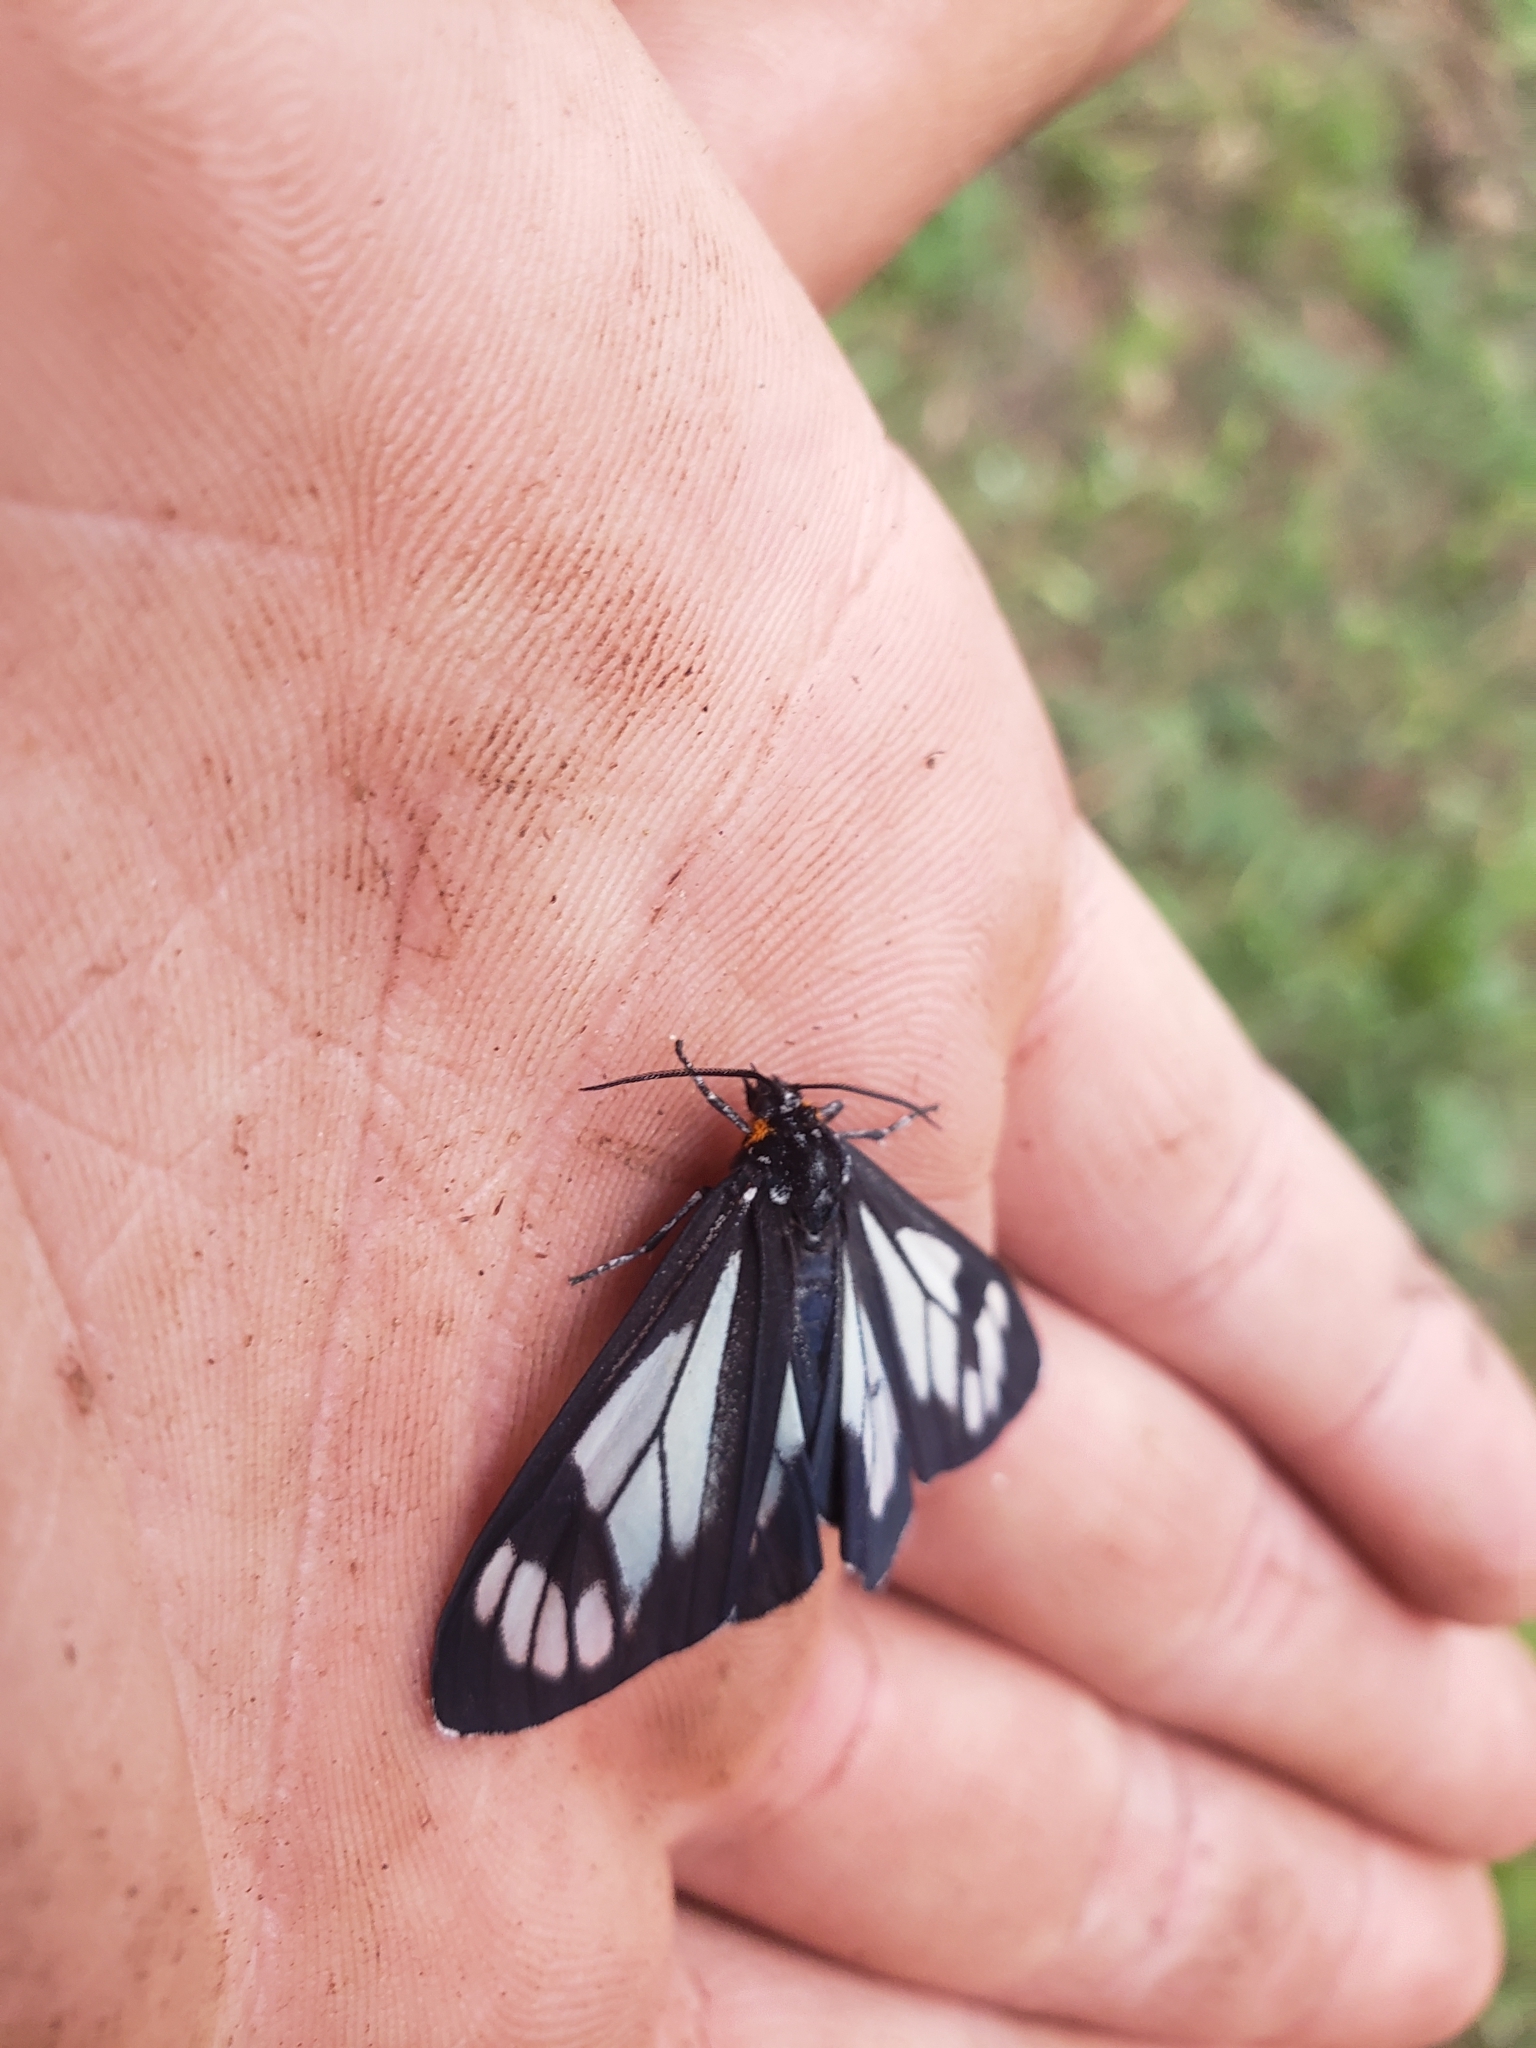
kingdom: Animalia
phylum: Arthropoda
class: Insecta
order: Lepidoptera
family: Erebidae
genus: Gnophaela
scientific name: Gnophaela vermiculata
